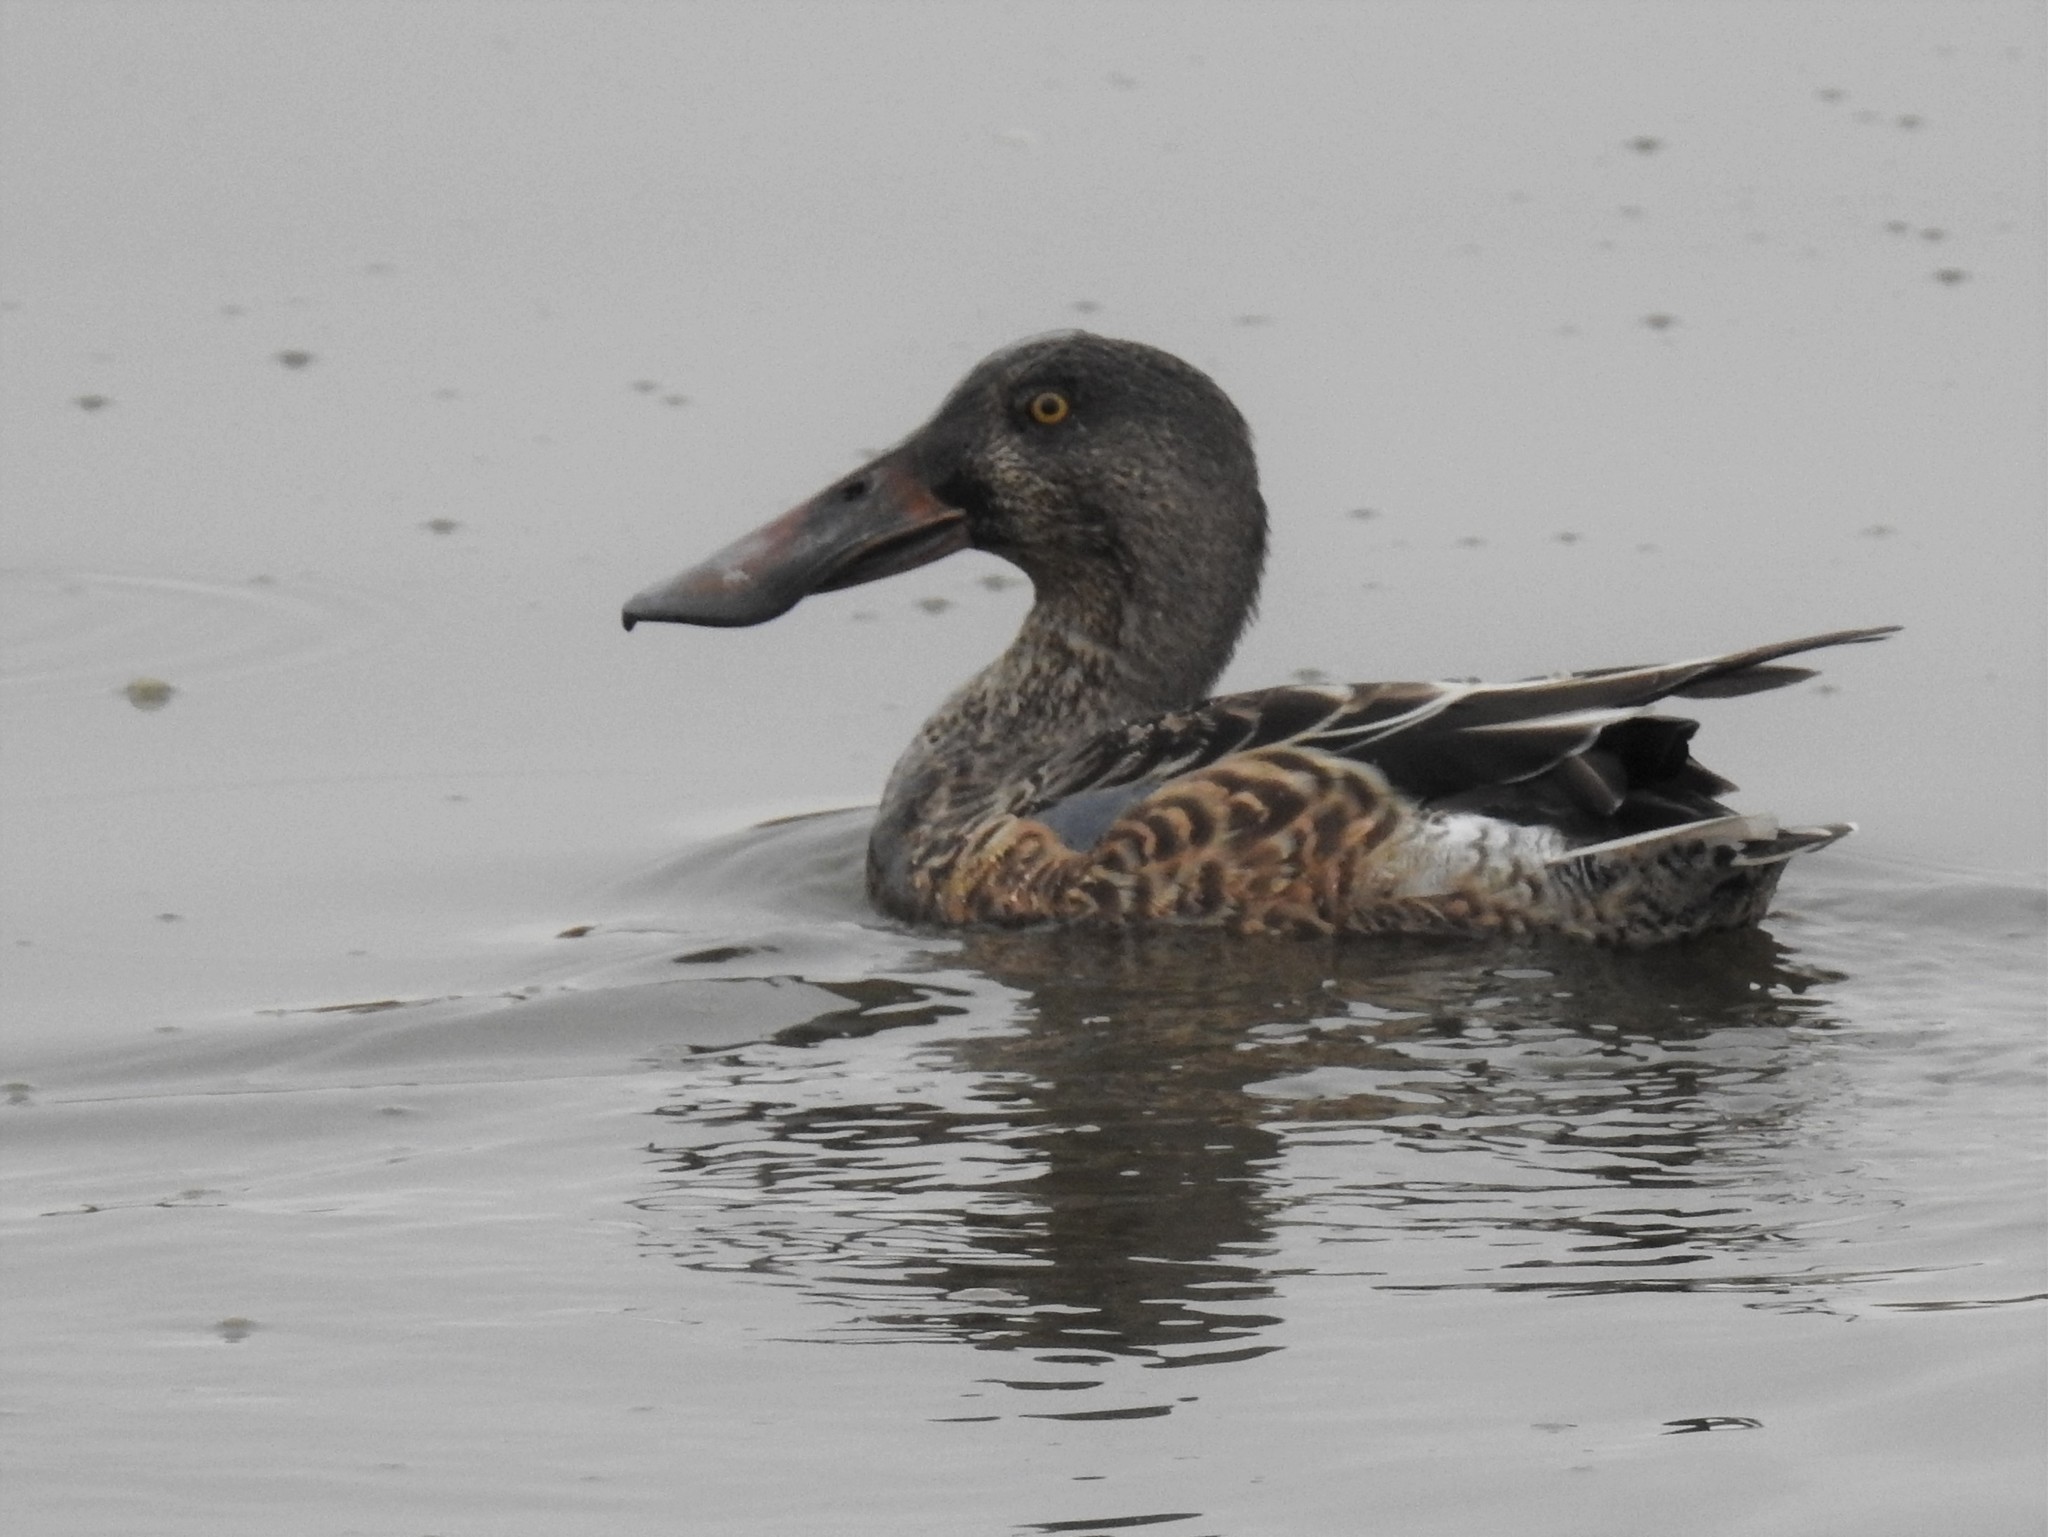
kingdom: Animalia
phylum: Chordata
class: Aves
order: Anseriformes
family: Anatidae
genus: Spatula
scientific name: Spatula clypeata
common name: Northern shoveler
